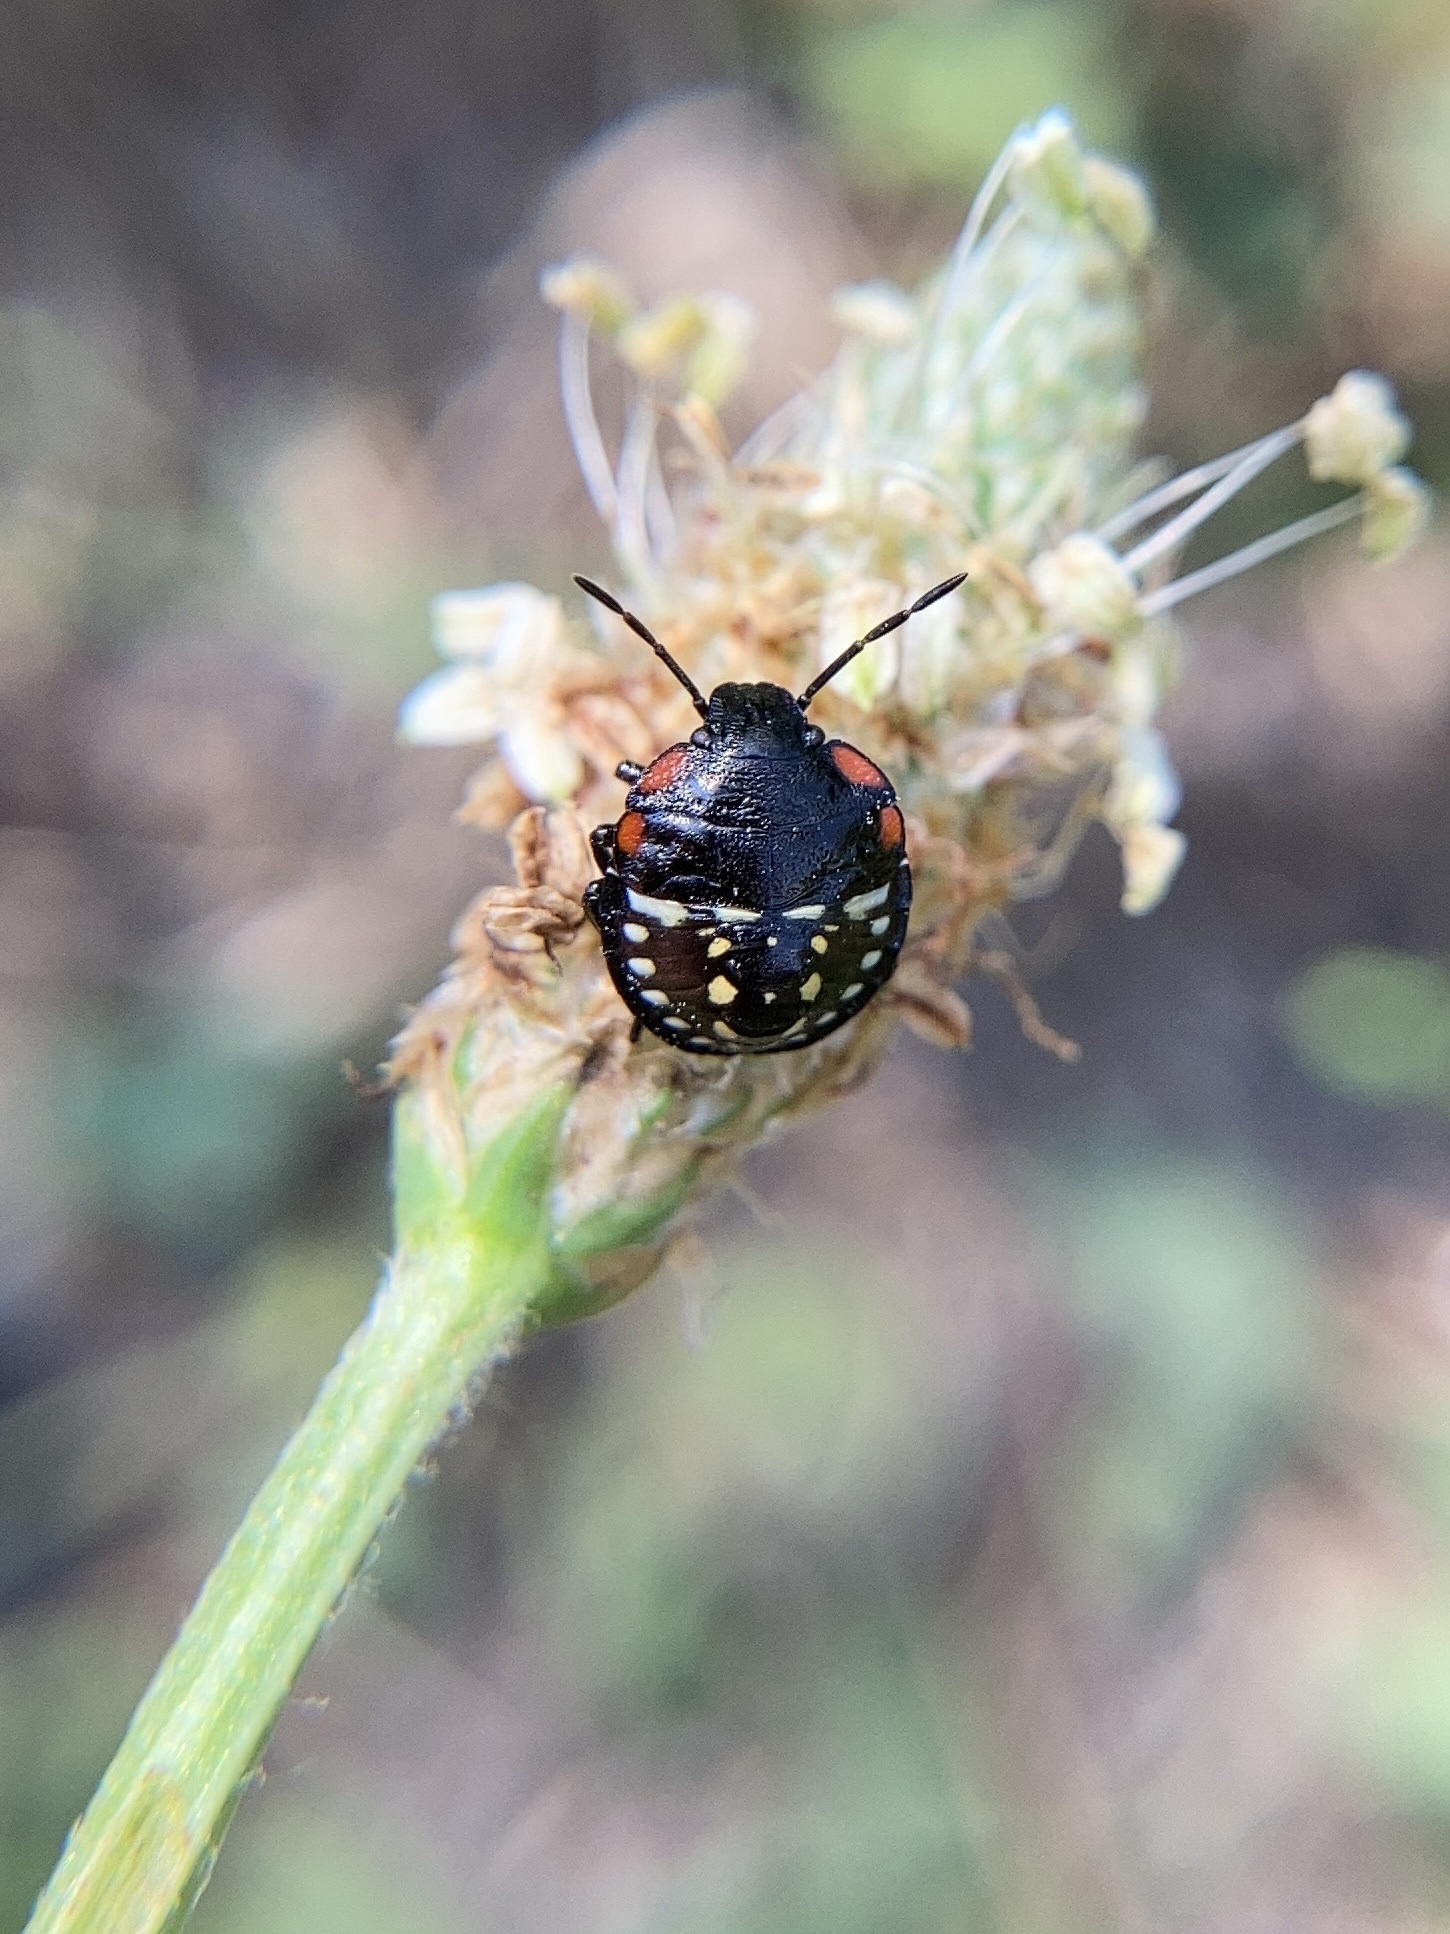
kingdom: Animalia
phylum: Arthropoda
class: Insecta
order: Hemiptera
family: Pentatomidae
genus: Nezara
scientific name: Nezara viridula
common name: Southern green stink bug
